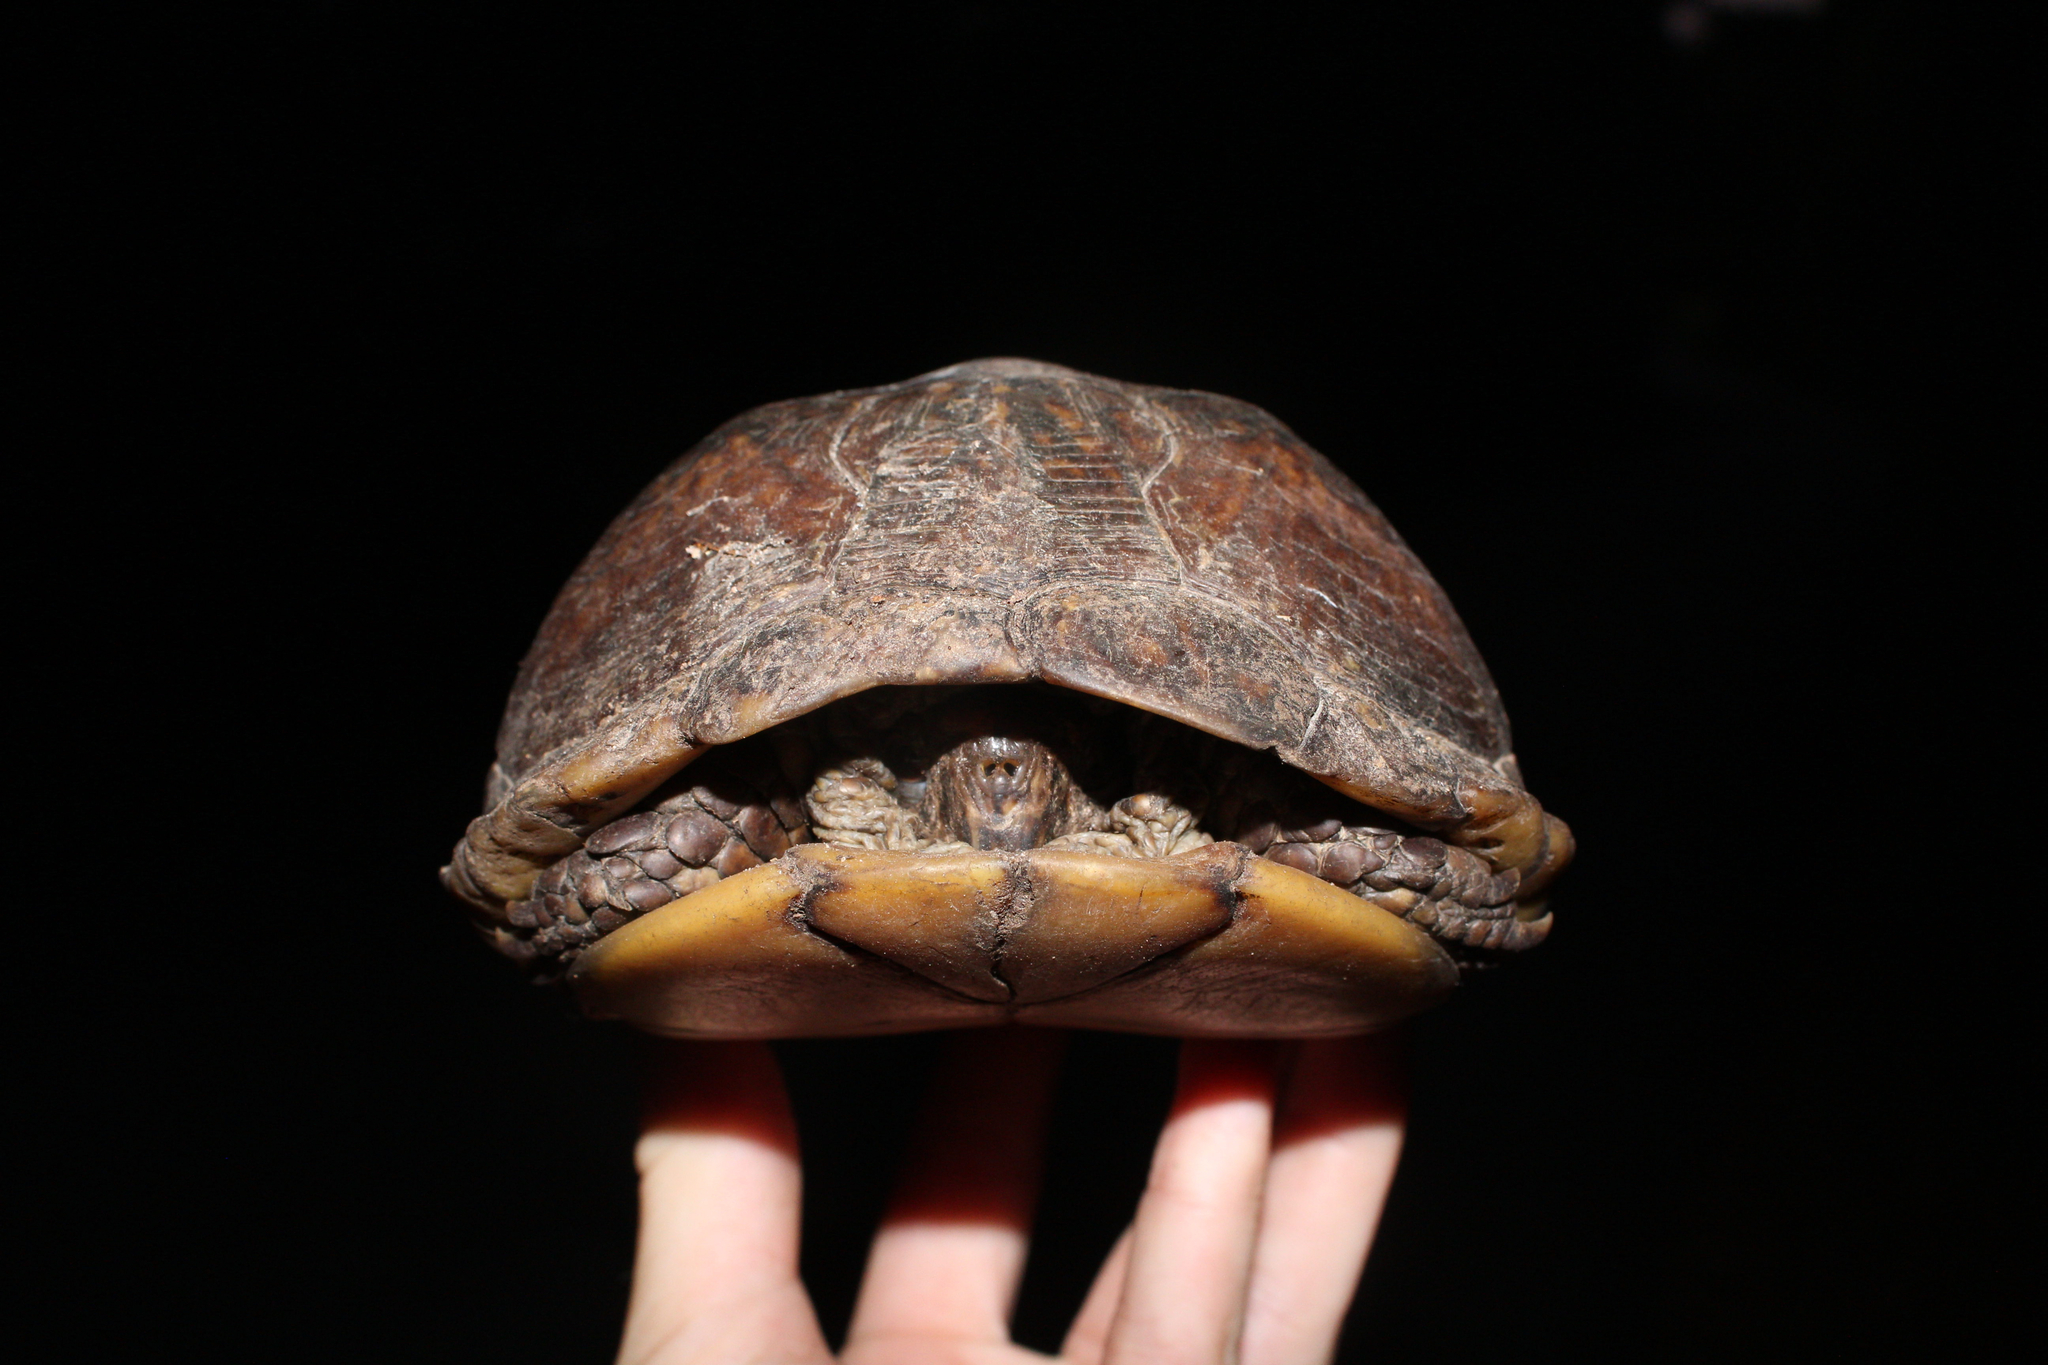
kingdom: Animalia
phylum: Chordata
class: Testudines
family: Emydidae
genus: Terrapene
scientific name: Terrapene carolina
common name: Common box turtle
